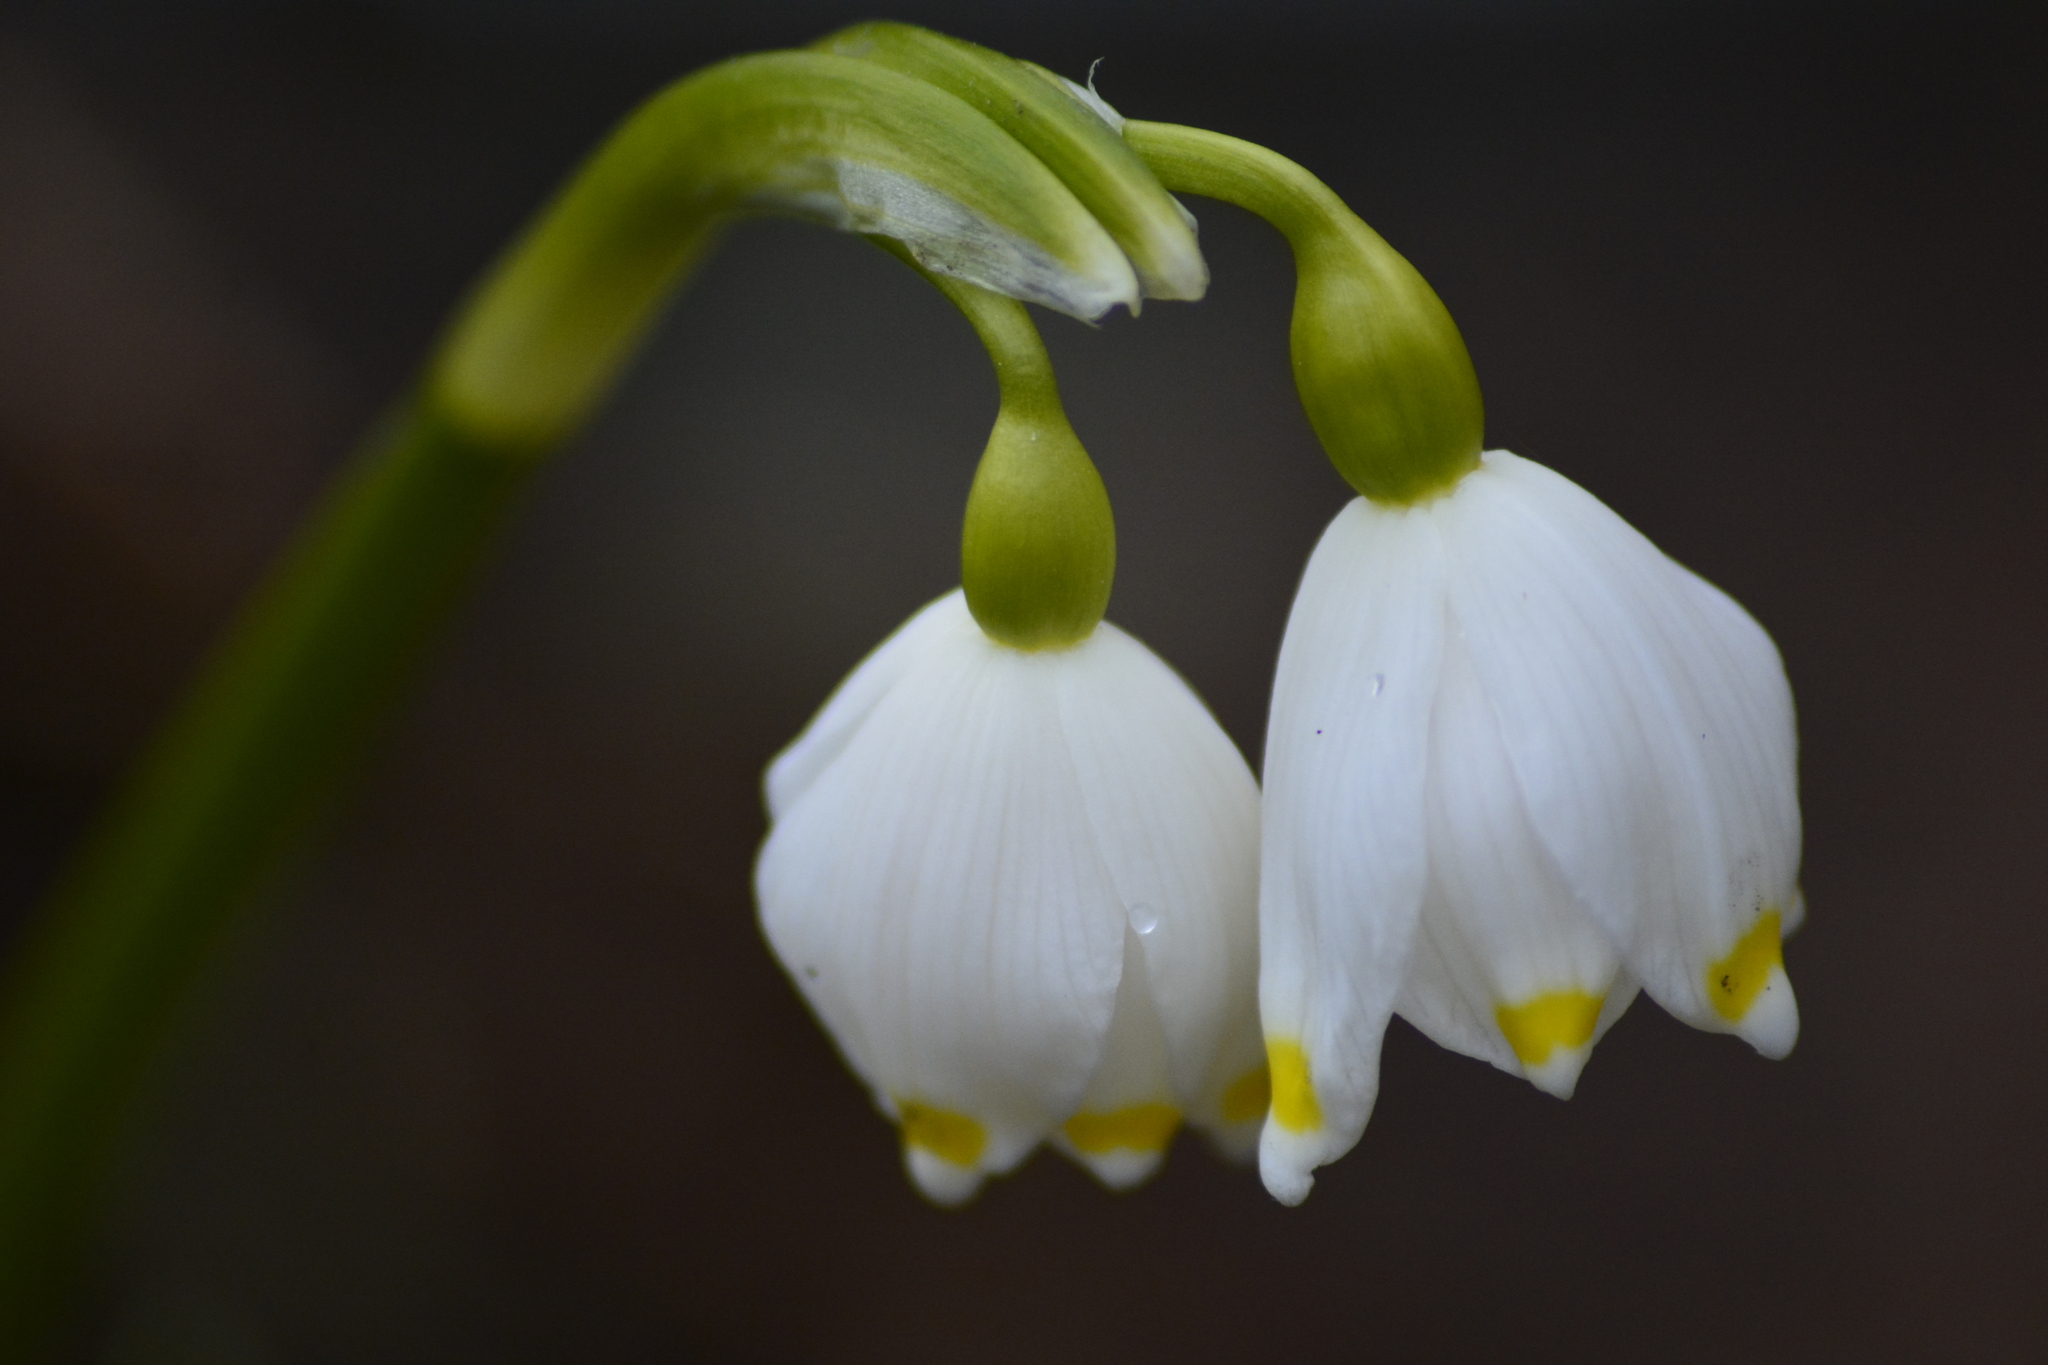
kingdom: Plantae
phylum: Tracheophyta
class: Liliopsida
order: Asparagales
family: Amaryllidaceae
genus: Leucojum
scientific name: Leucojum vernum
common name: Spring snowflake
